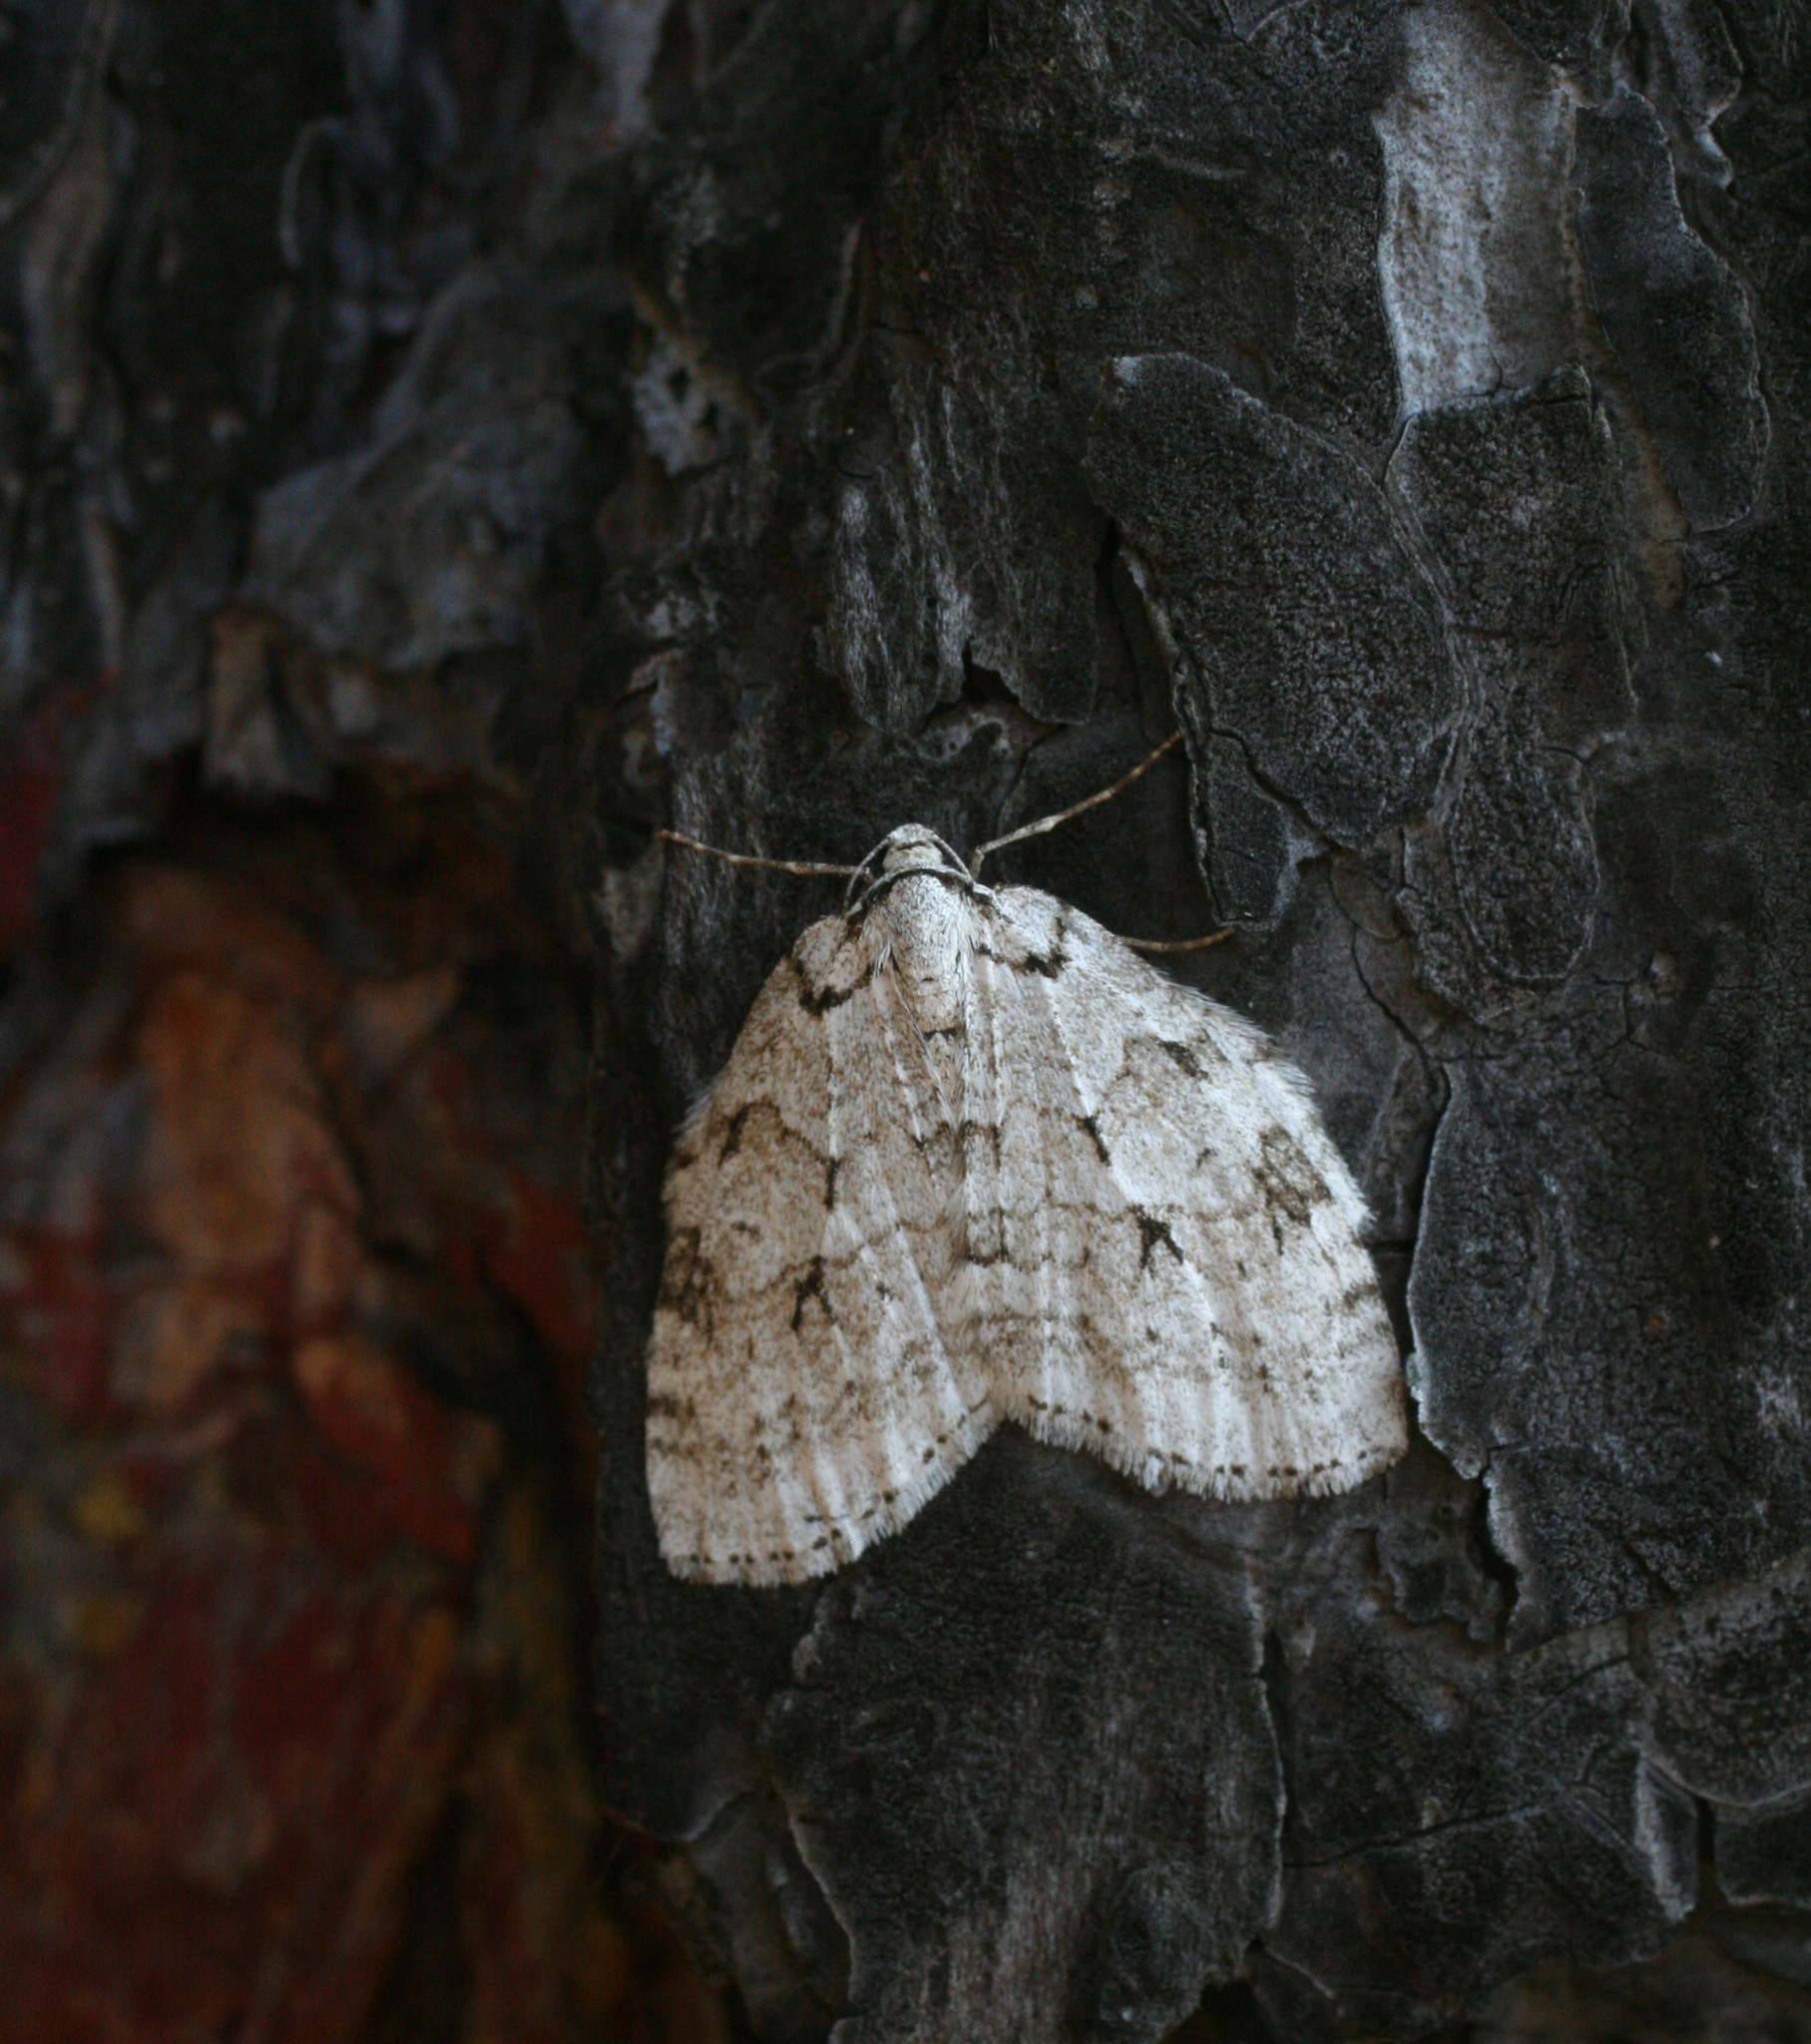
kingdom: Animalia
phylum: Arthropoda
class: Insecta
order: Lepidoptera
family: Geometridae
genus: Epirrita
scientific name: Epirrita autumnata
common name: Autumnal moth
